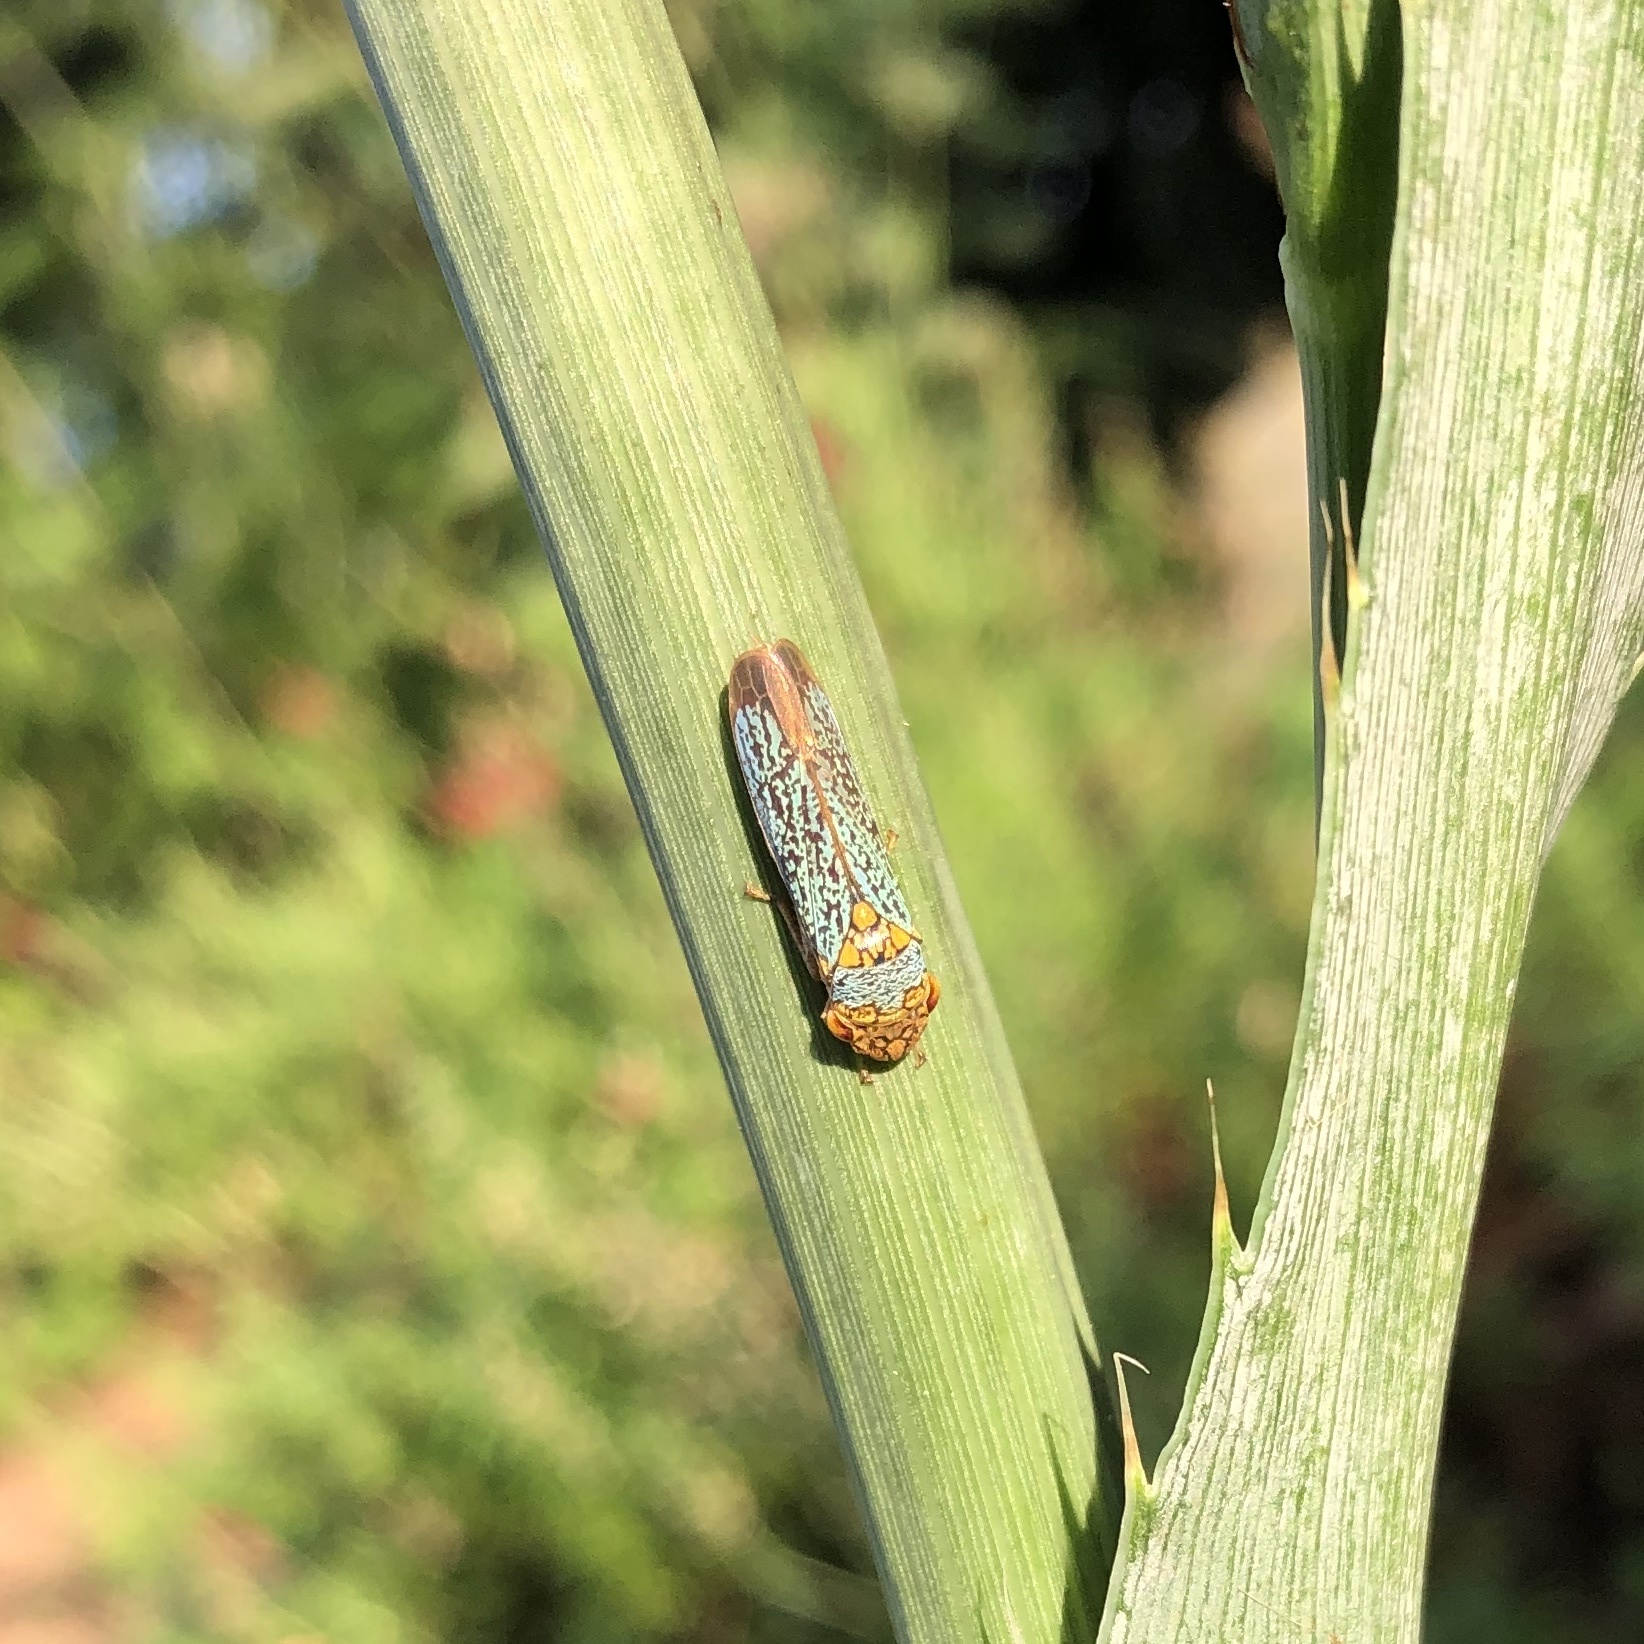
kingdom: Animalia
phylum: Arthropoda
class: Insecta
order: Hemiptera
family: Cicadellidae
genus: Oncometopia
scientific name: Oncometopia orbona
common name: Broad-headed sharpshooter
